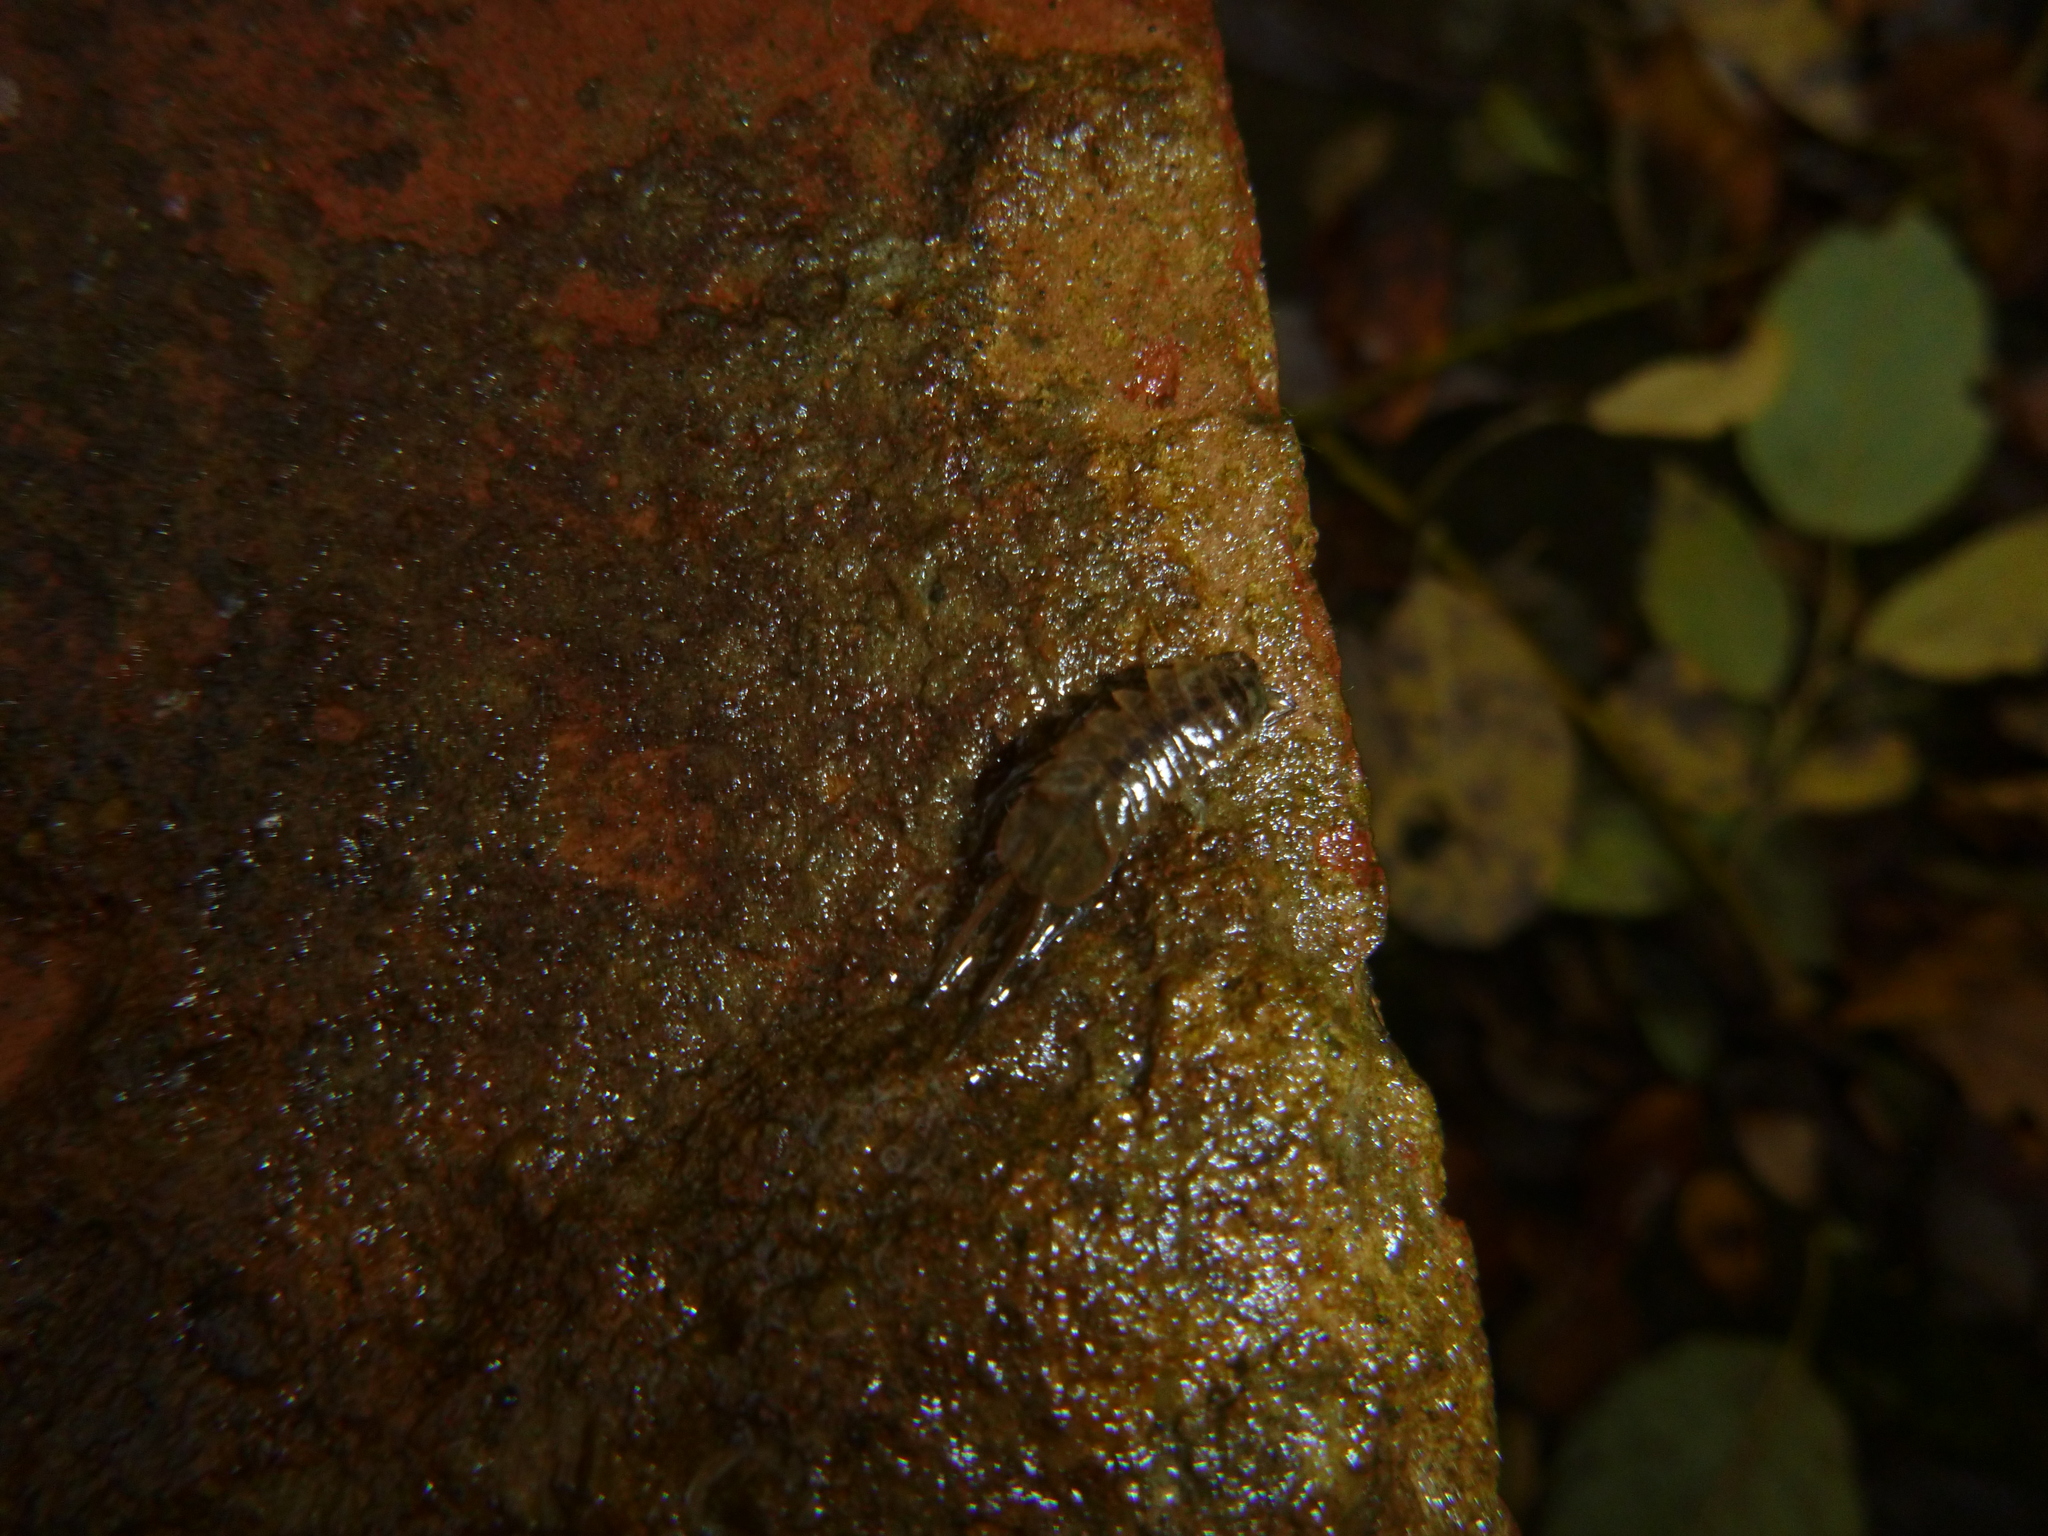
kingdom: Animalia
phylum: Arthropoda
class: Malacostraca
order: Isopoda
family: Asellidae
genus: Asellus
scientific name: Asellus aquaticus
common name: Water hog lice/slaters
